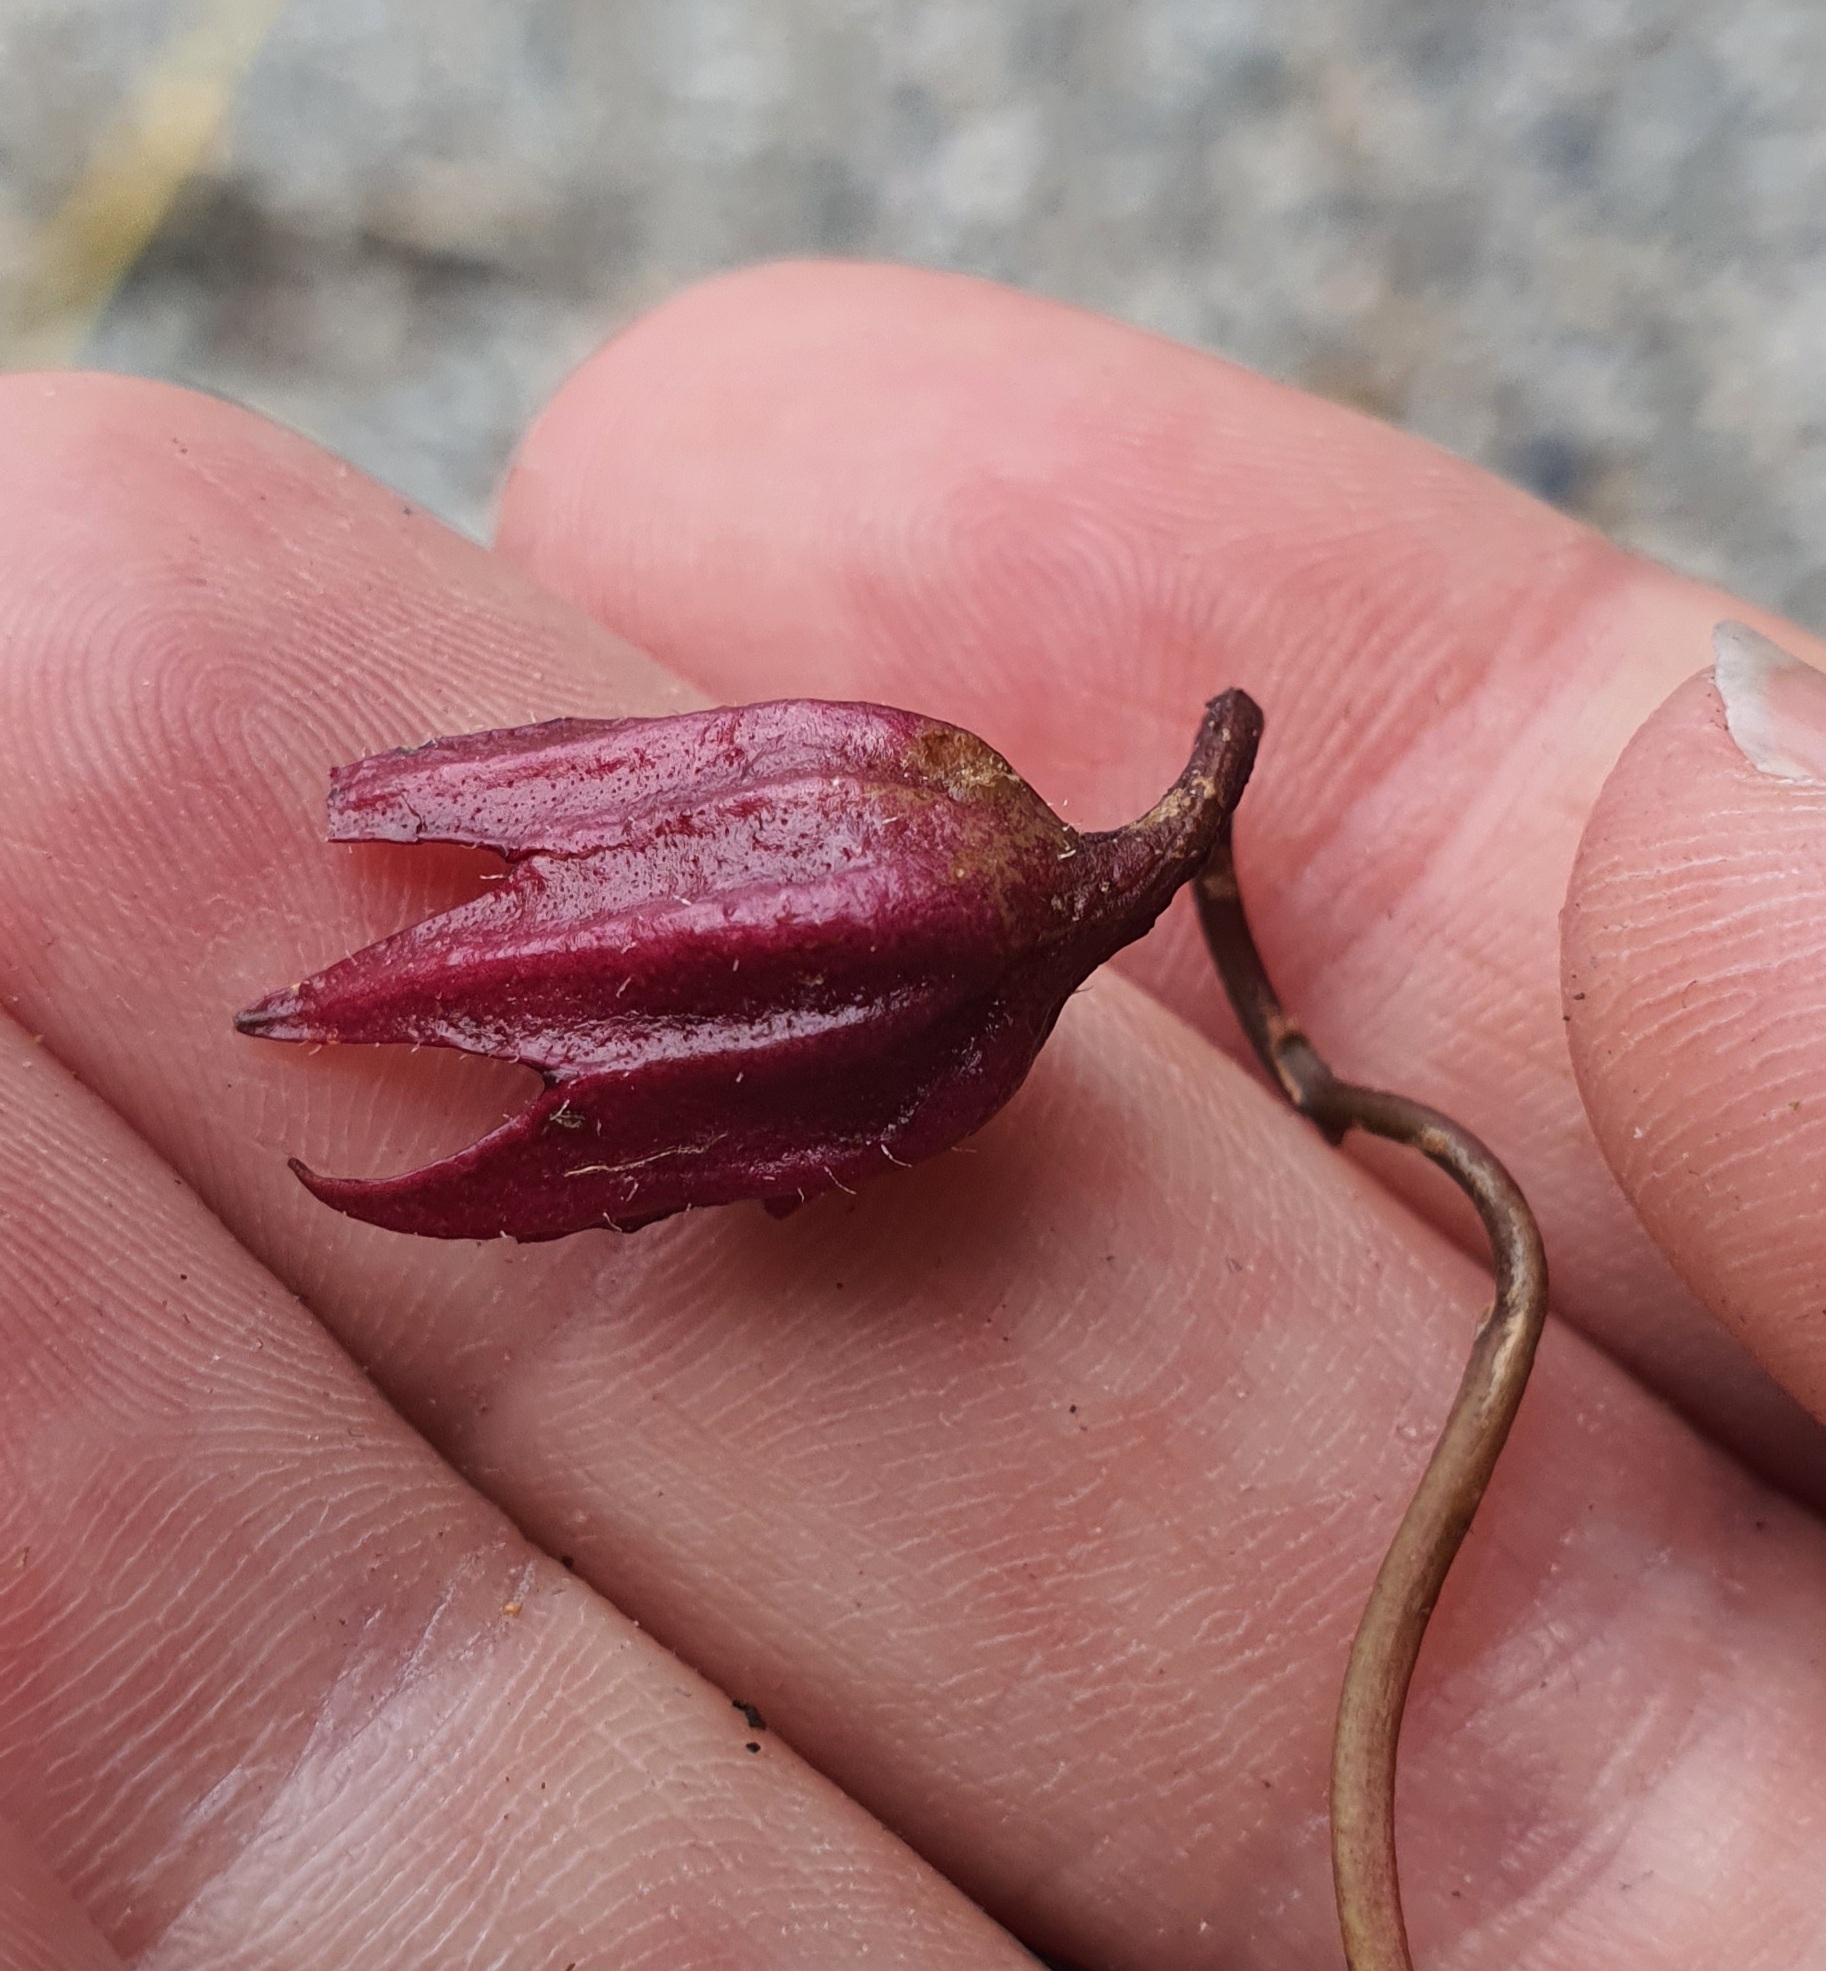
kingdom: Plantae
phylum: Tracheophyta
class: Magnoliopsida
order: Lamiales
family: Mazaceae
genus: Mazus
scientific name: Mazus radicans
